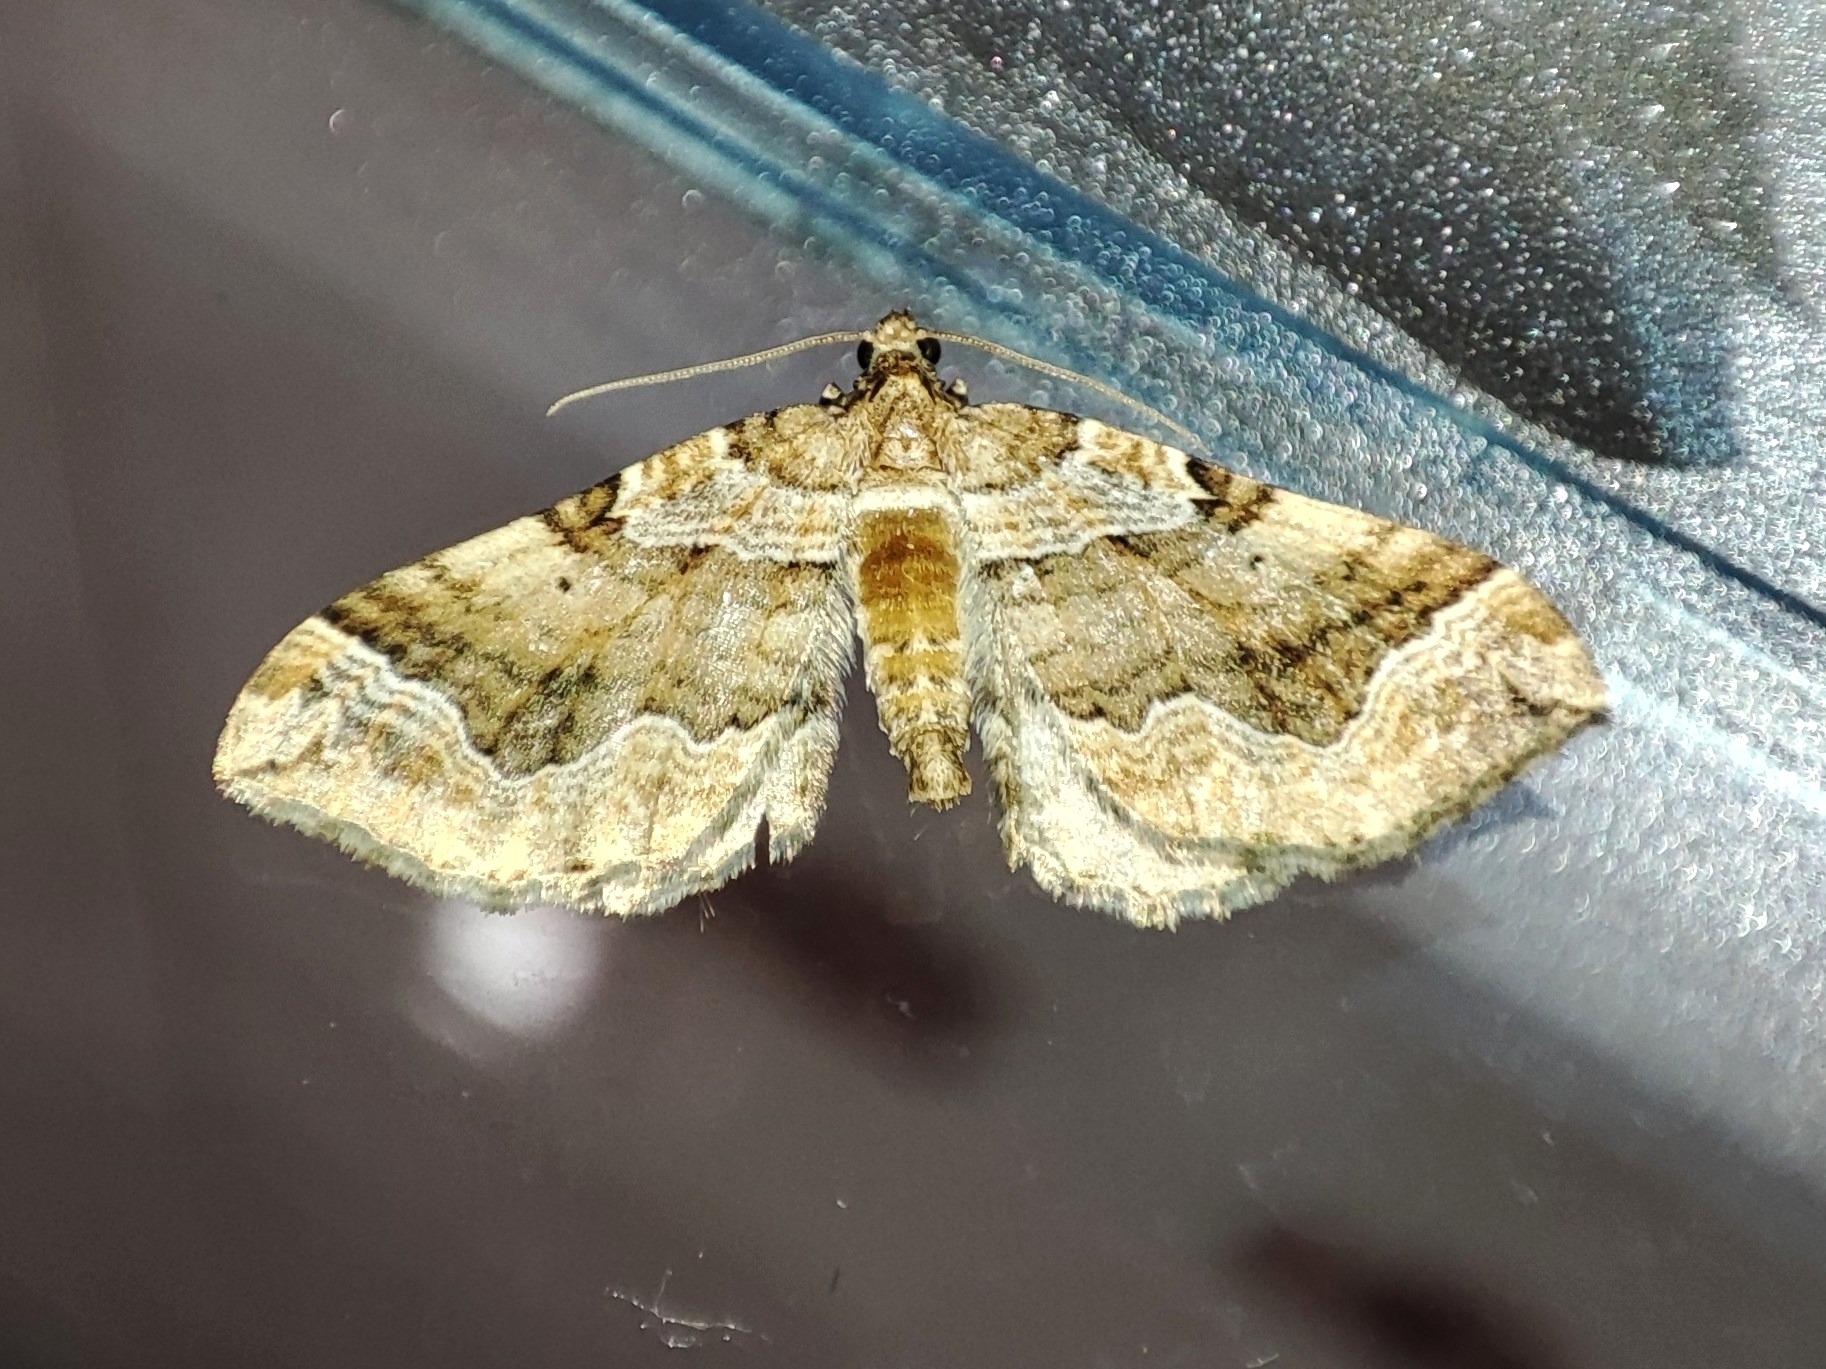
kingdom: Animalia
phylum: Arthropoda
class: Insecta
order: Lepidoptera
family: Geometridae
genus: Pelurga
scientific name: Pelurga comitata
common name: Dark spinach
